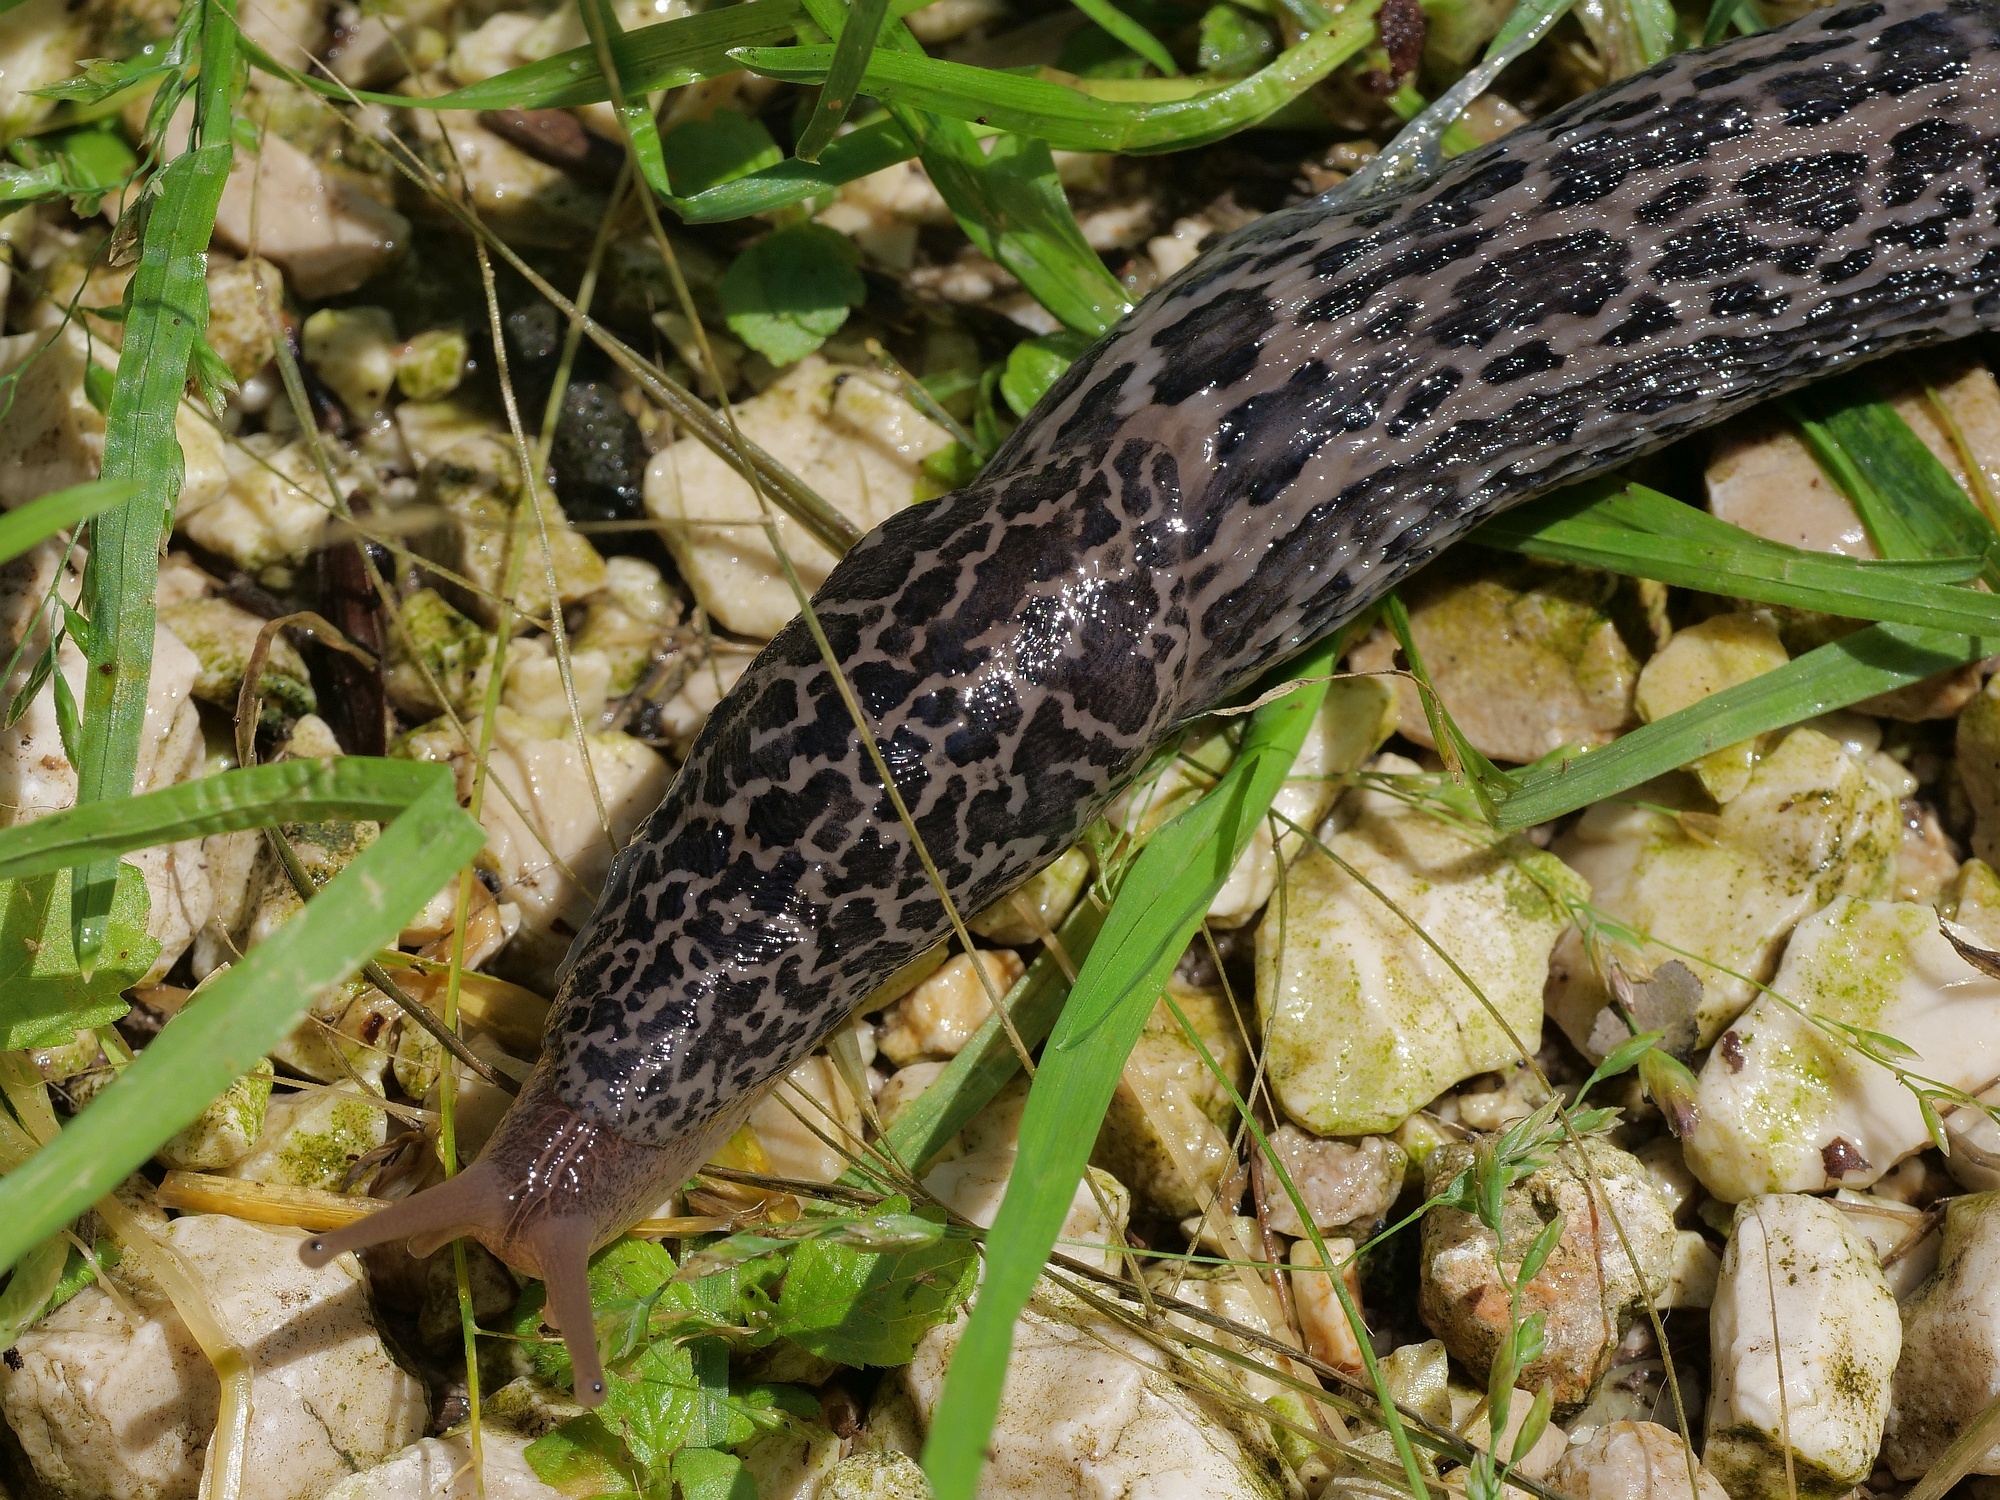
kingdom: Animalia
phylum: Mollusca
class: Gastropoda
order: Stylommatophora
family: Limacidae
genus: Limax
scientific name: Limax maximus
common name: Great grey slug
